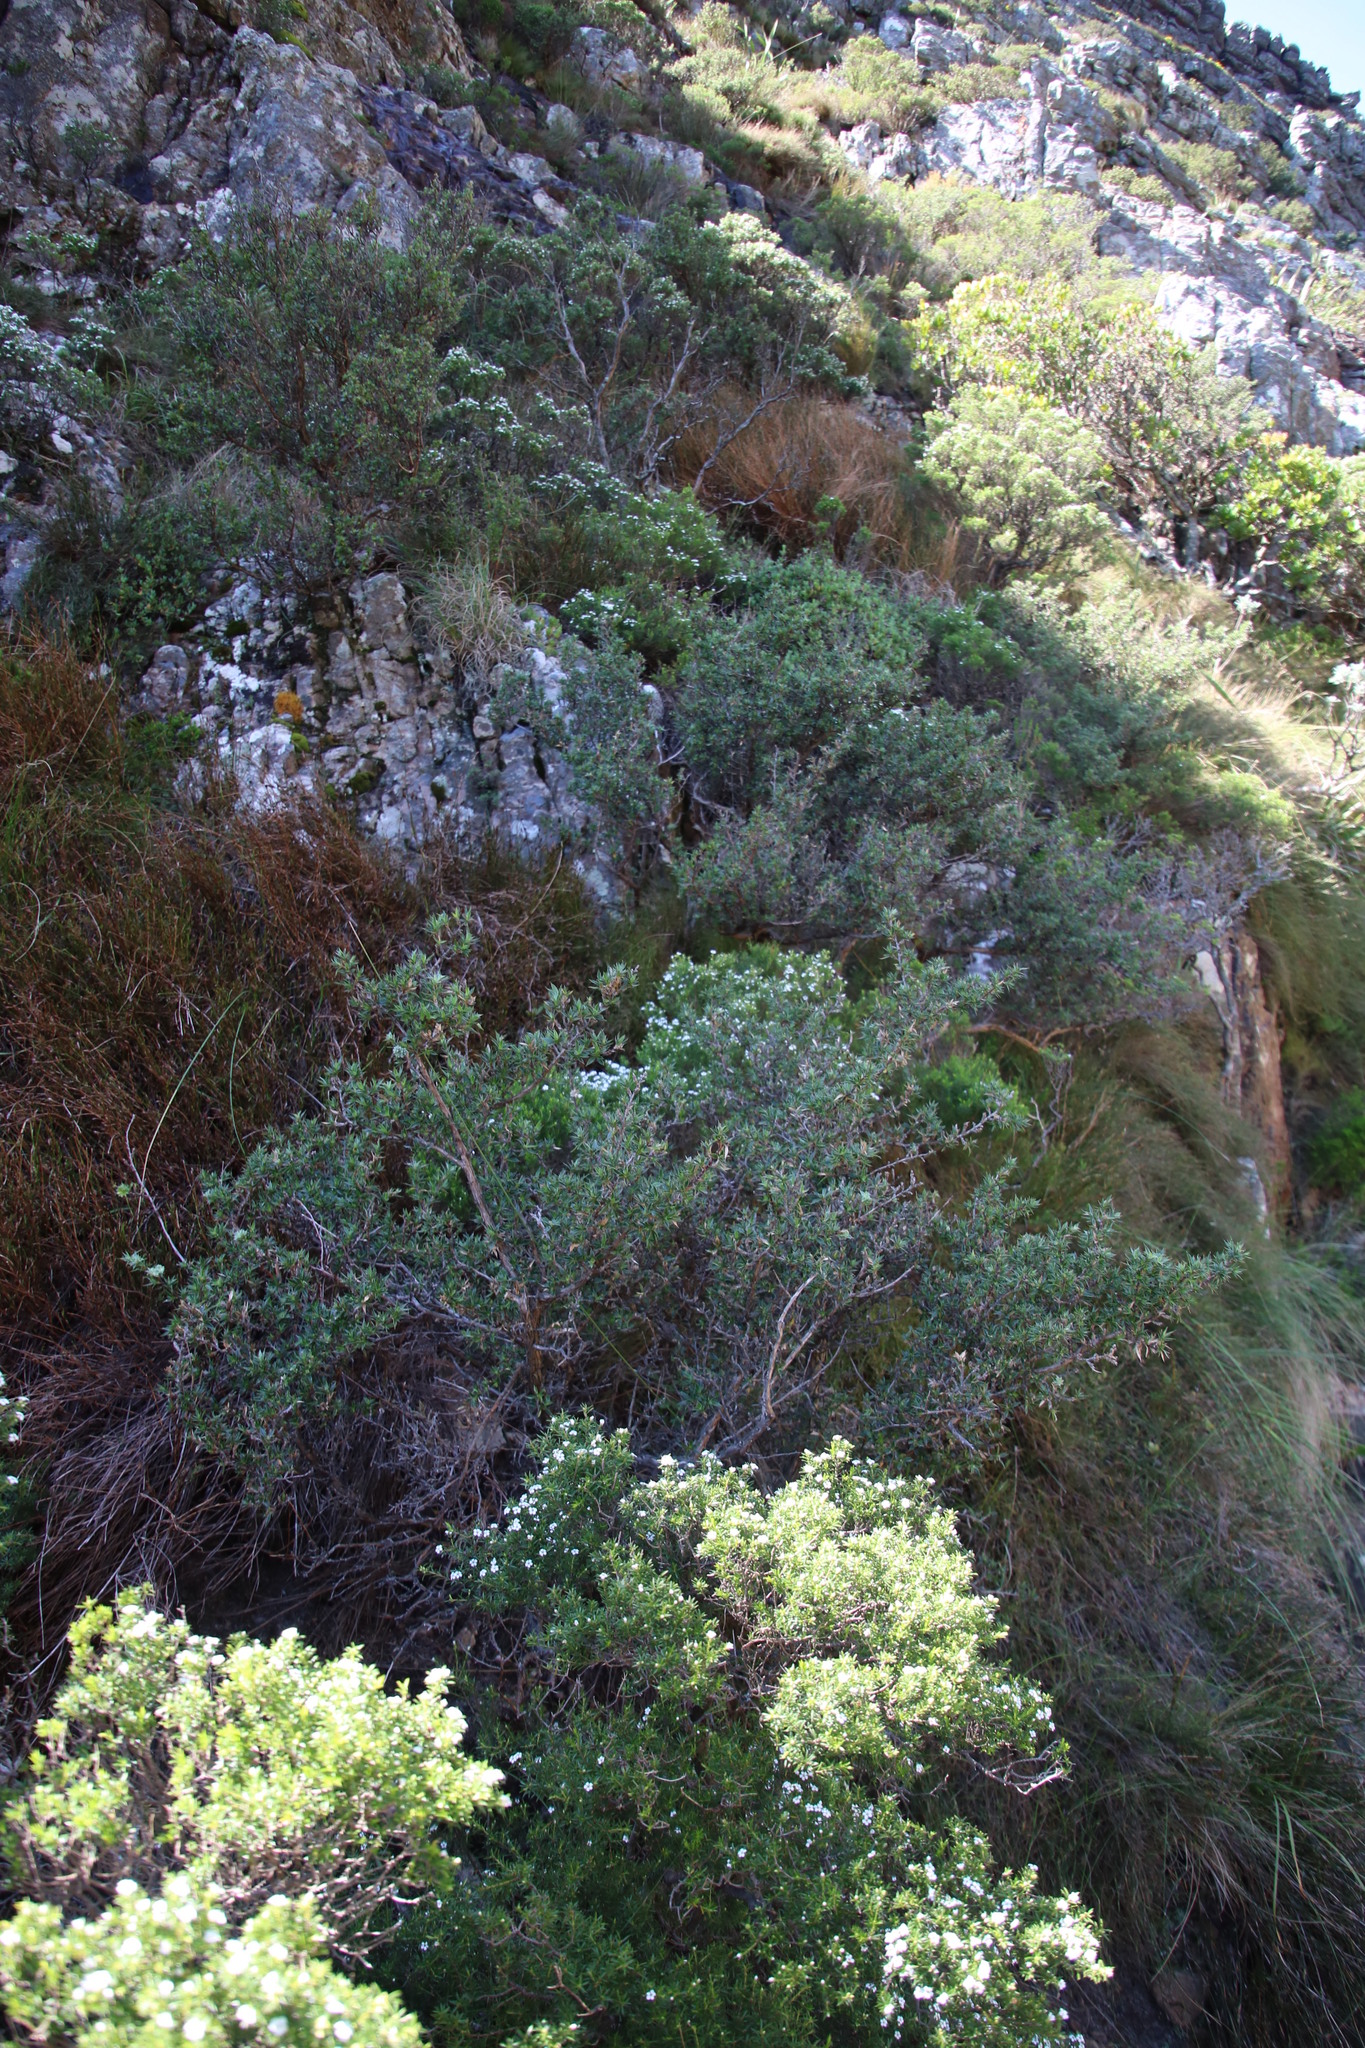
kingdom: Plantae
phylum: Tracheophyta
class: Magnoliopsida
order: Sapindales
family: Rutaceae
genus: Coleonema
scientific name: Coleonema album
